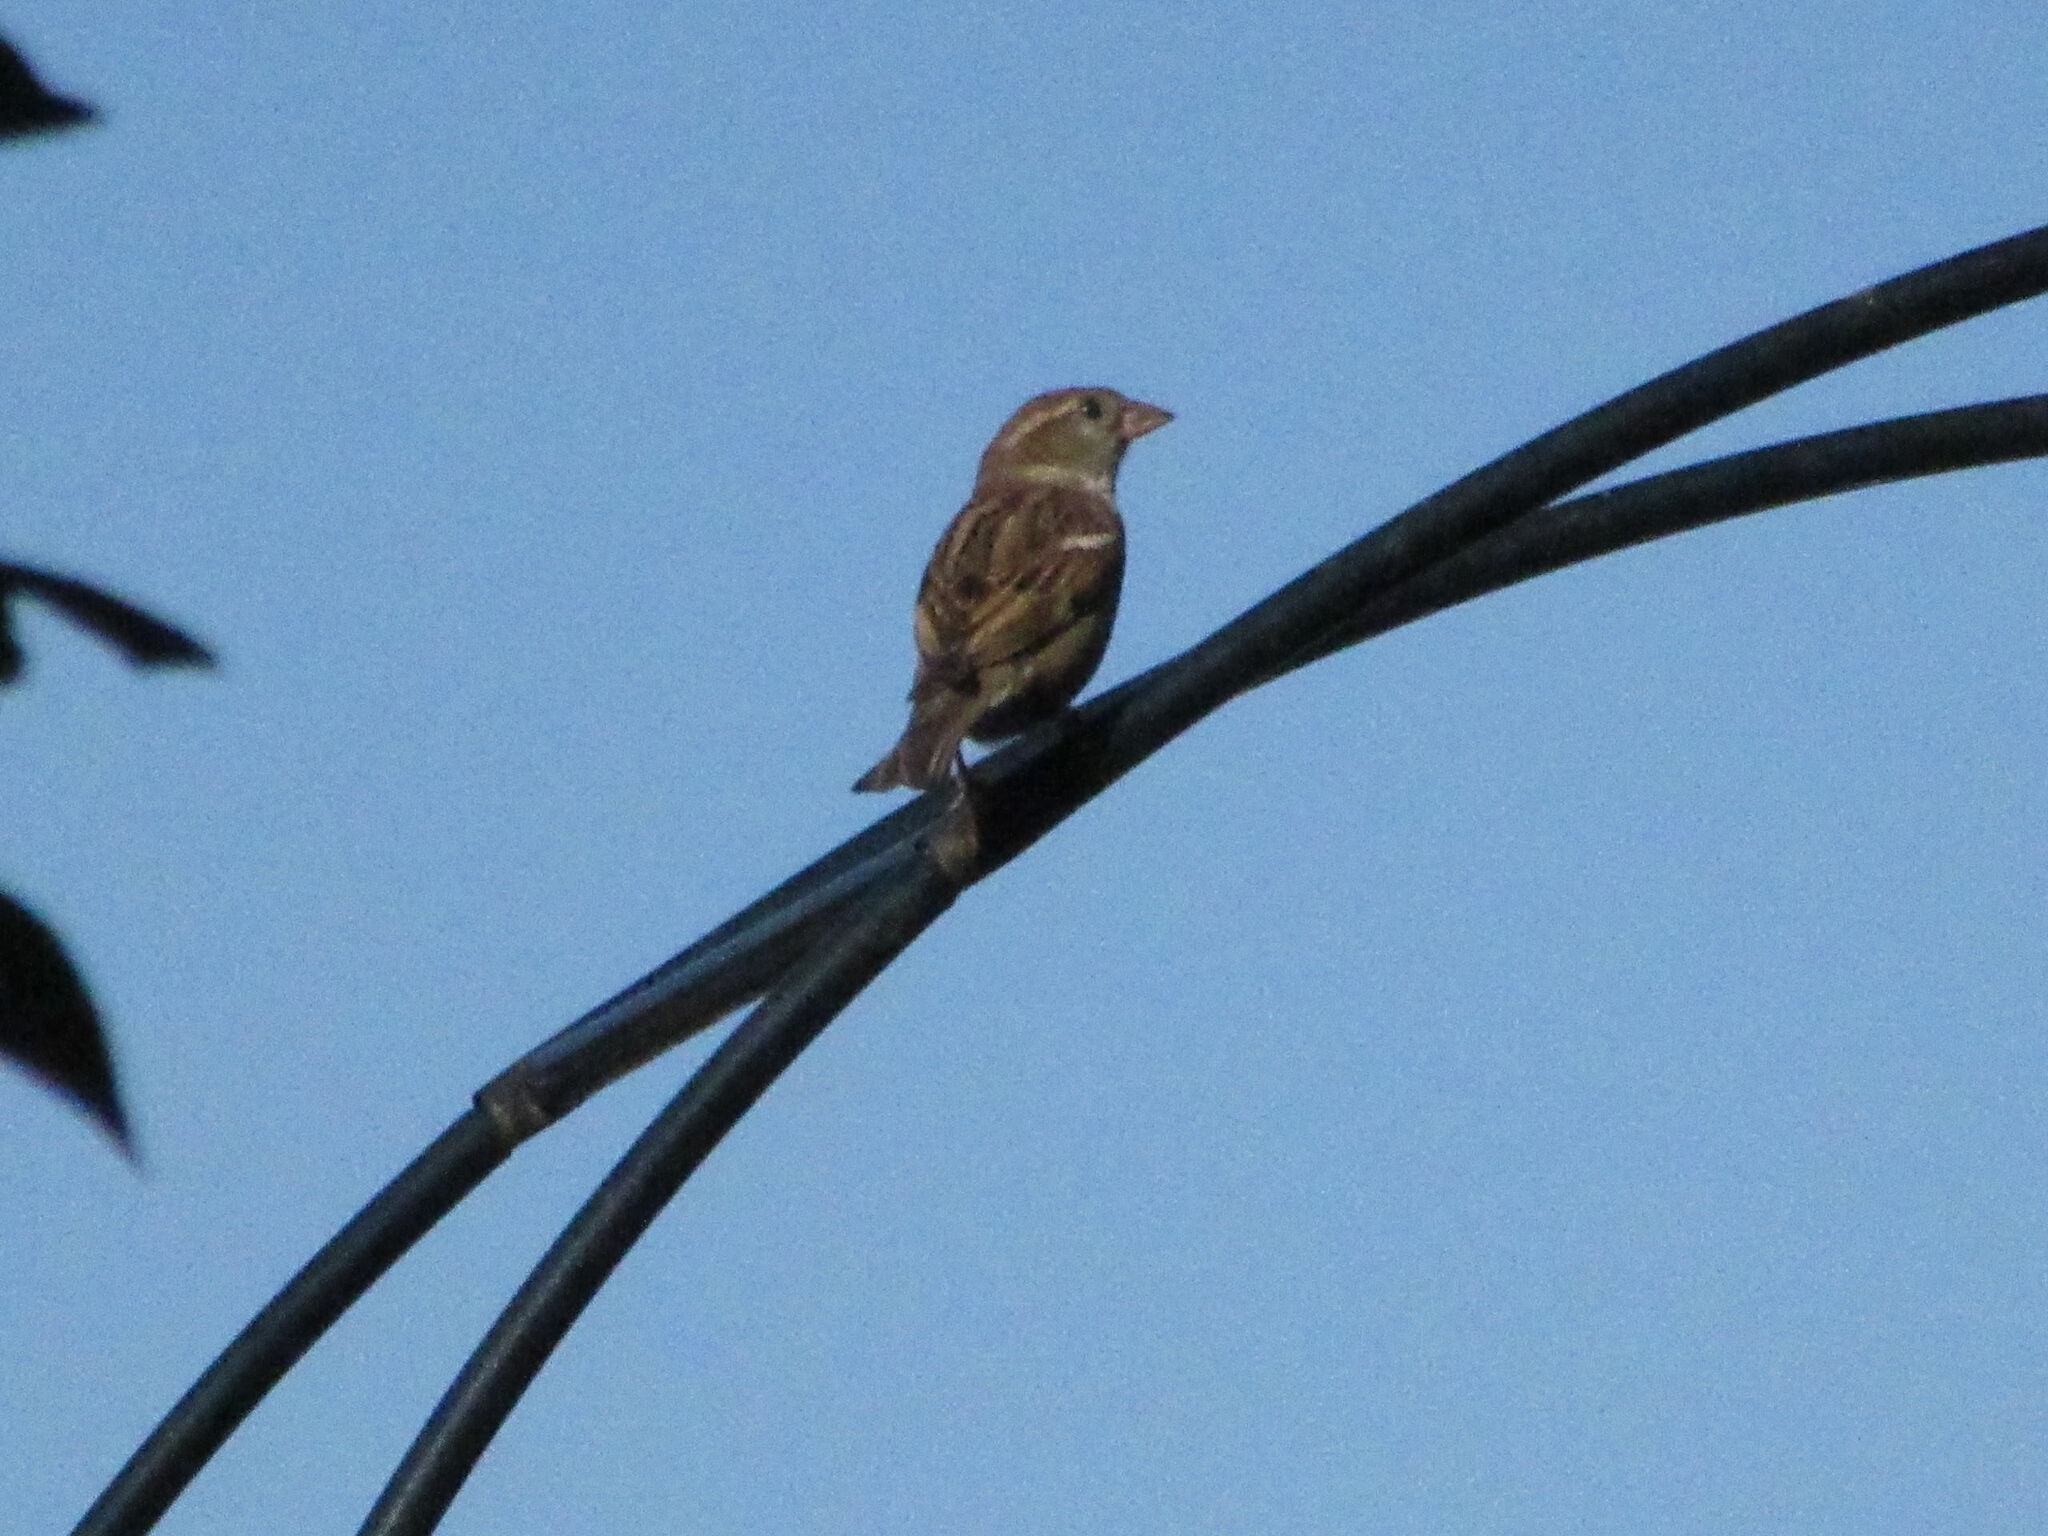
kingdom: Animalia
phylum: Chordata
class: Aves
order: Passeriformes
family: Passeridae
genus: Passer
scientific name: Passer domesticus
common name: House sparrow
